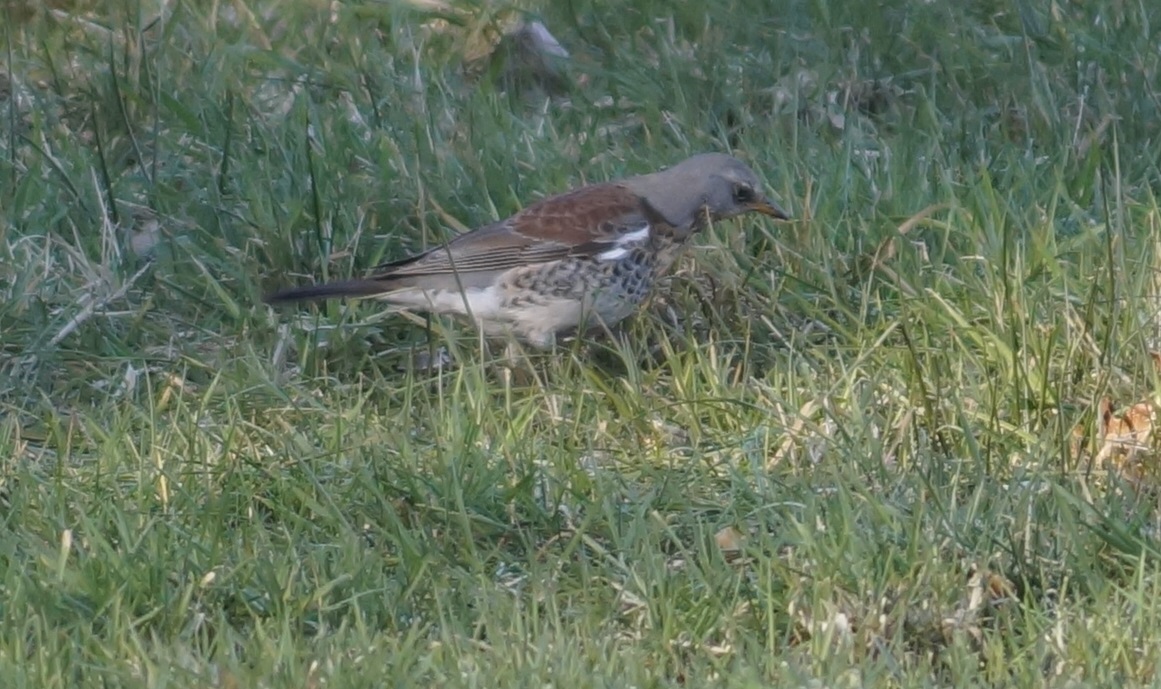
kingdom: Animalia
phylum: Chordata
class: Aves
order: Passeriformes
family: Turdidae
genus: Turdus
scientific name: Turdus pilaris
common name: Fieldfare
